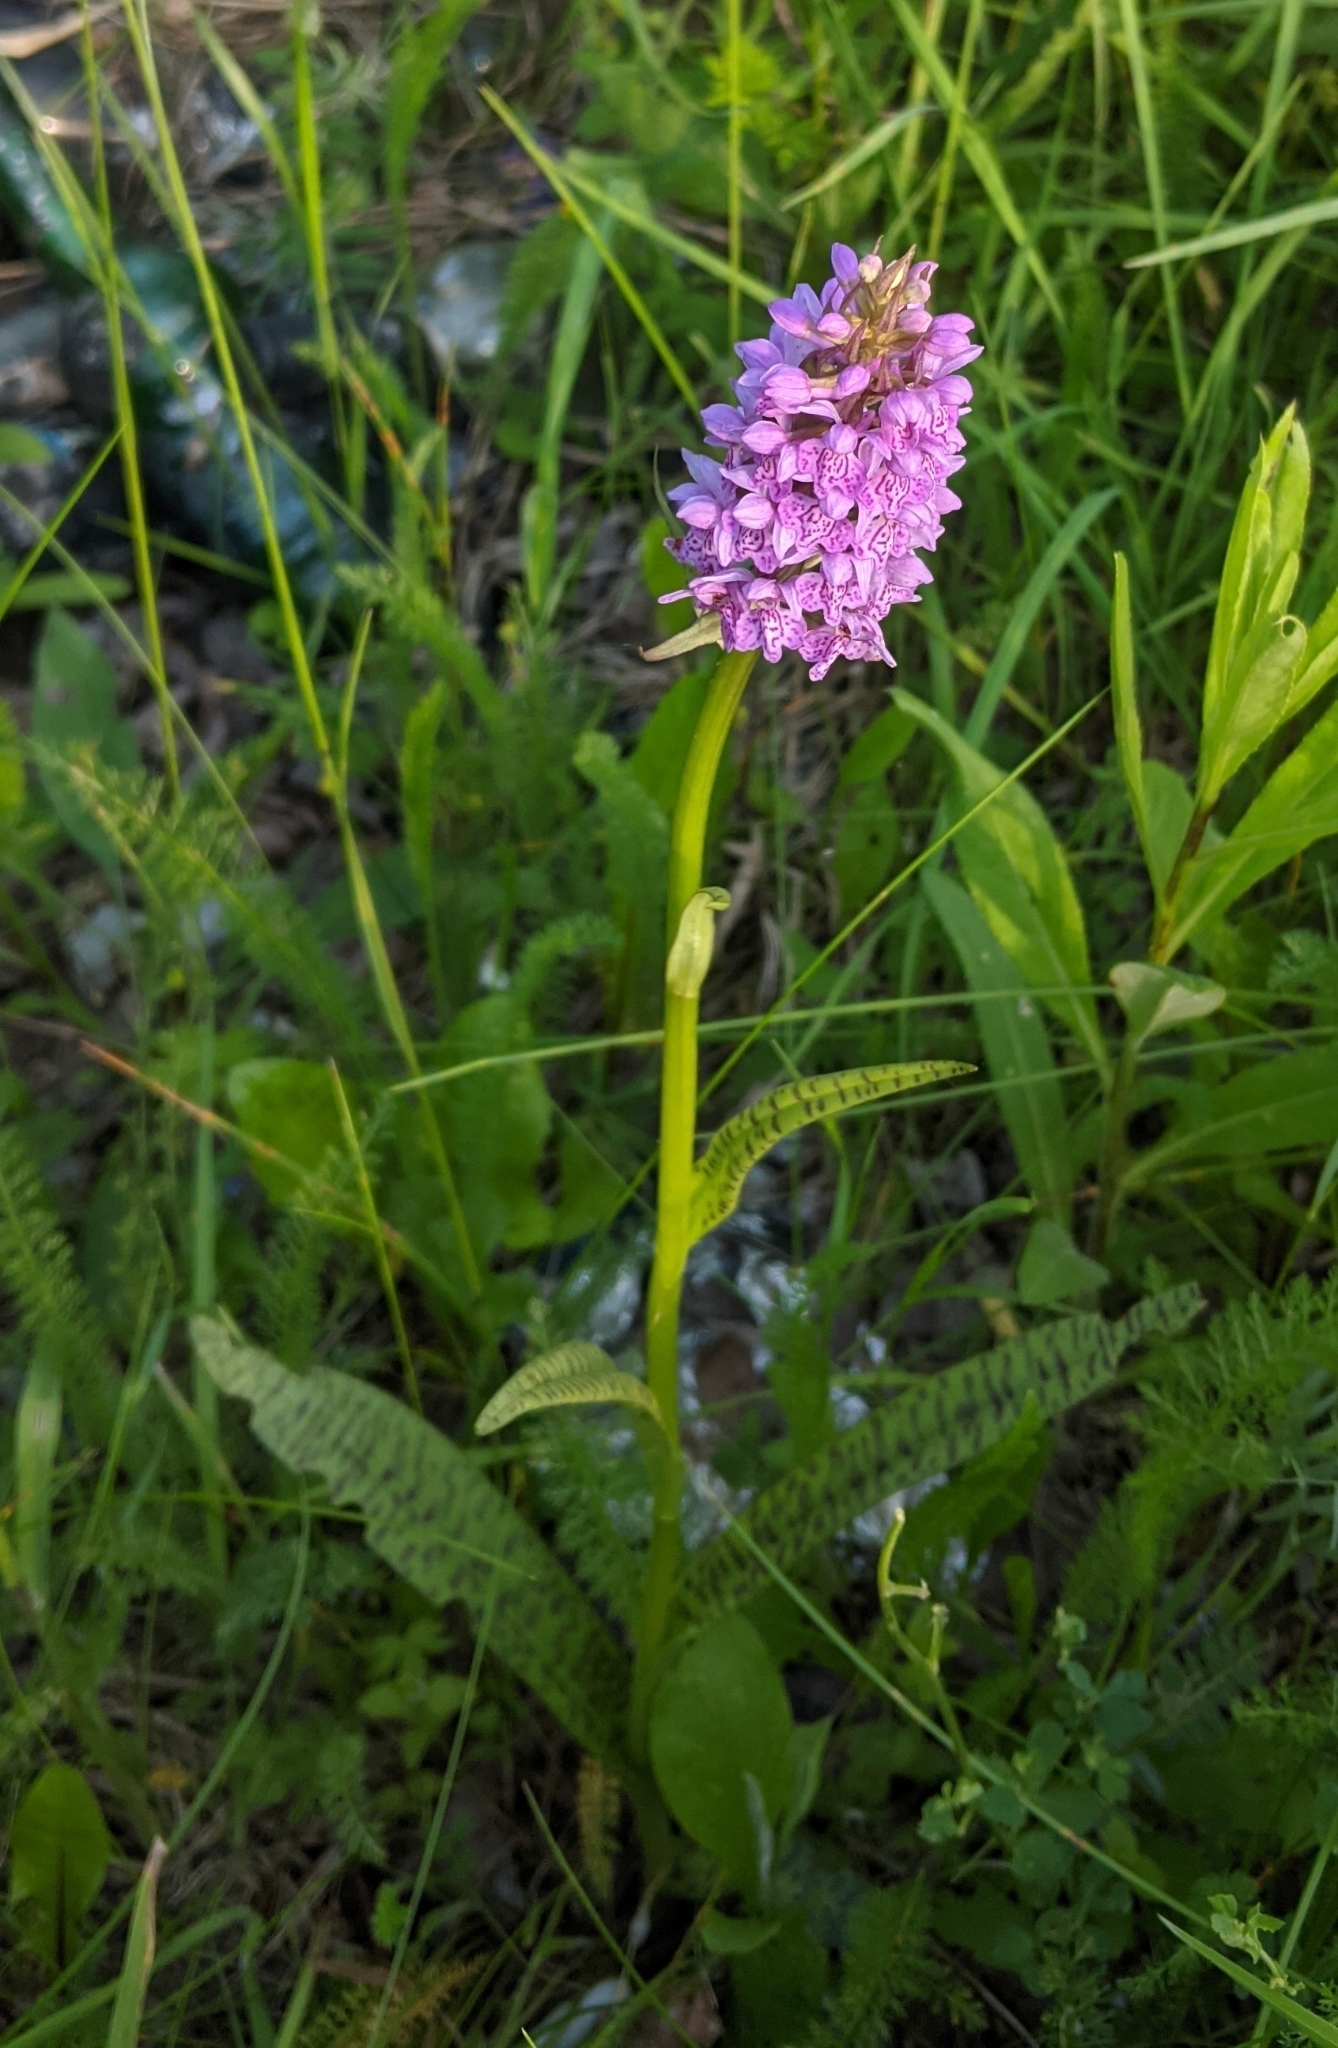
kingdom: Plantae
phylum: Tracheophyta
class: Liliopsida
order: Asparagales
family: Orchidaceae
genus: Dactylorhiza
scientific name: Dactylorhiza majalis
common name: Marsh orchid
